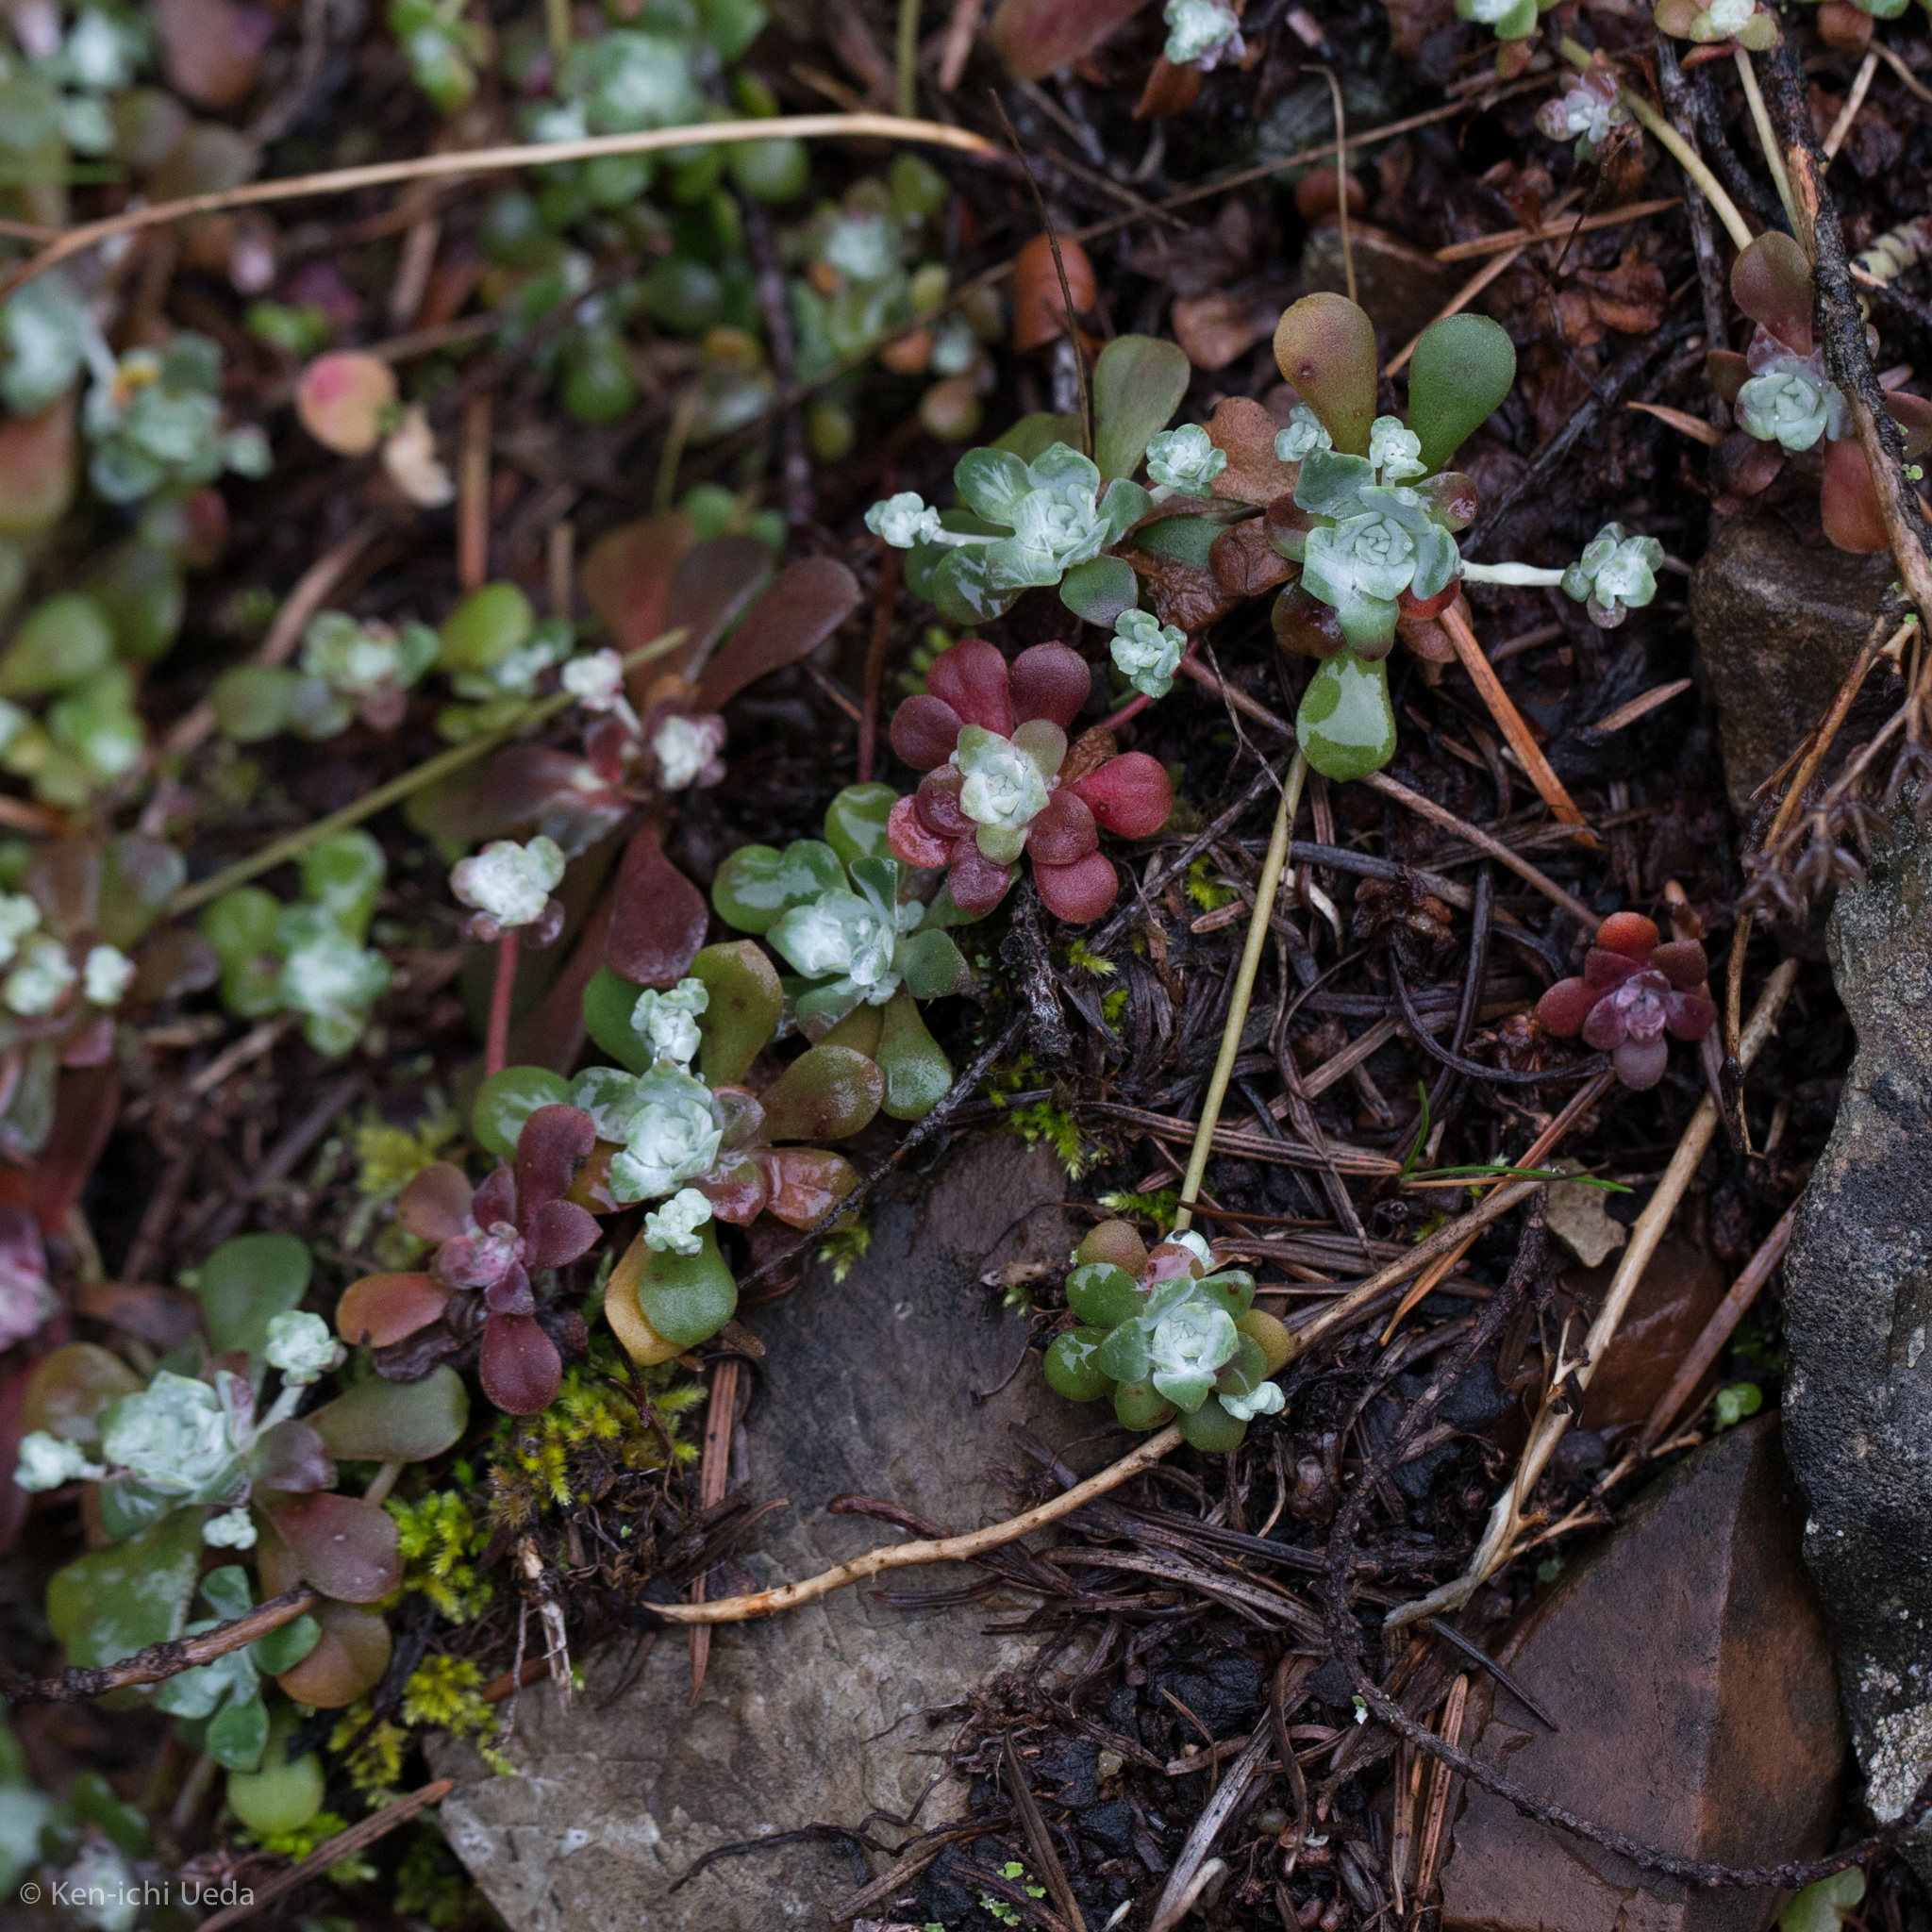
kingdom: Plantae
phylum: Tracheophyta
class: Magnoliopsida
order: Saxifragales
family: Crassulaceae
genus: Sedum
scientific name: Sedum spathulifolium
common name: Colorado stonecrop
